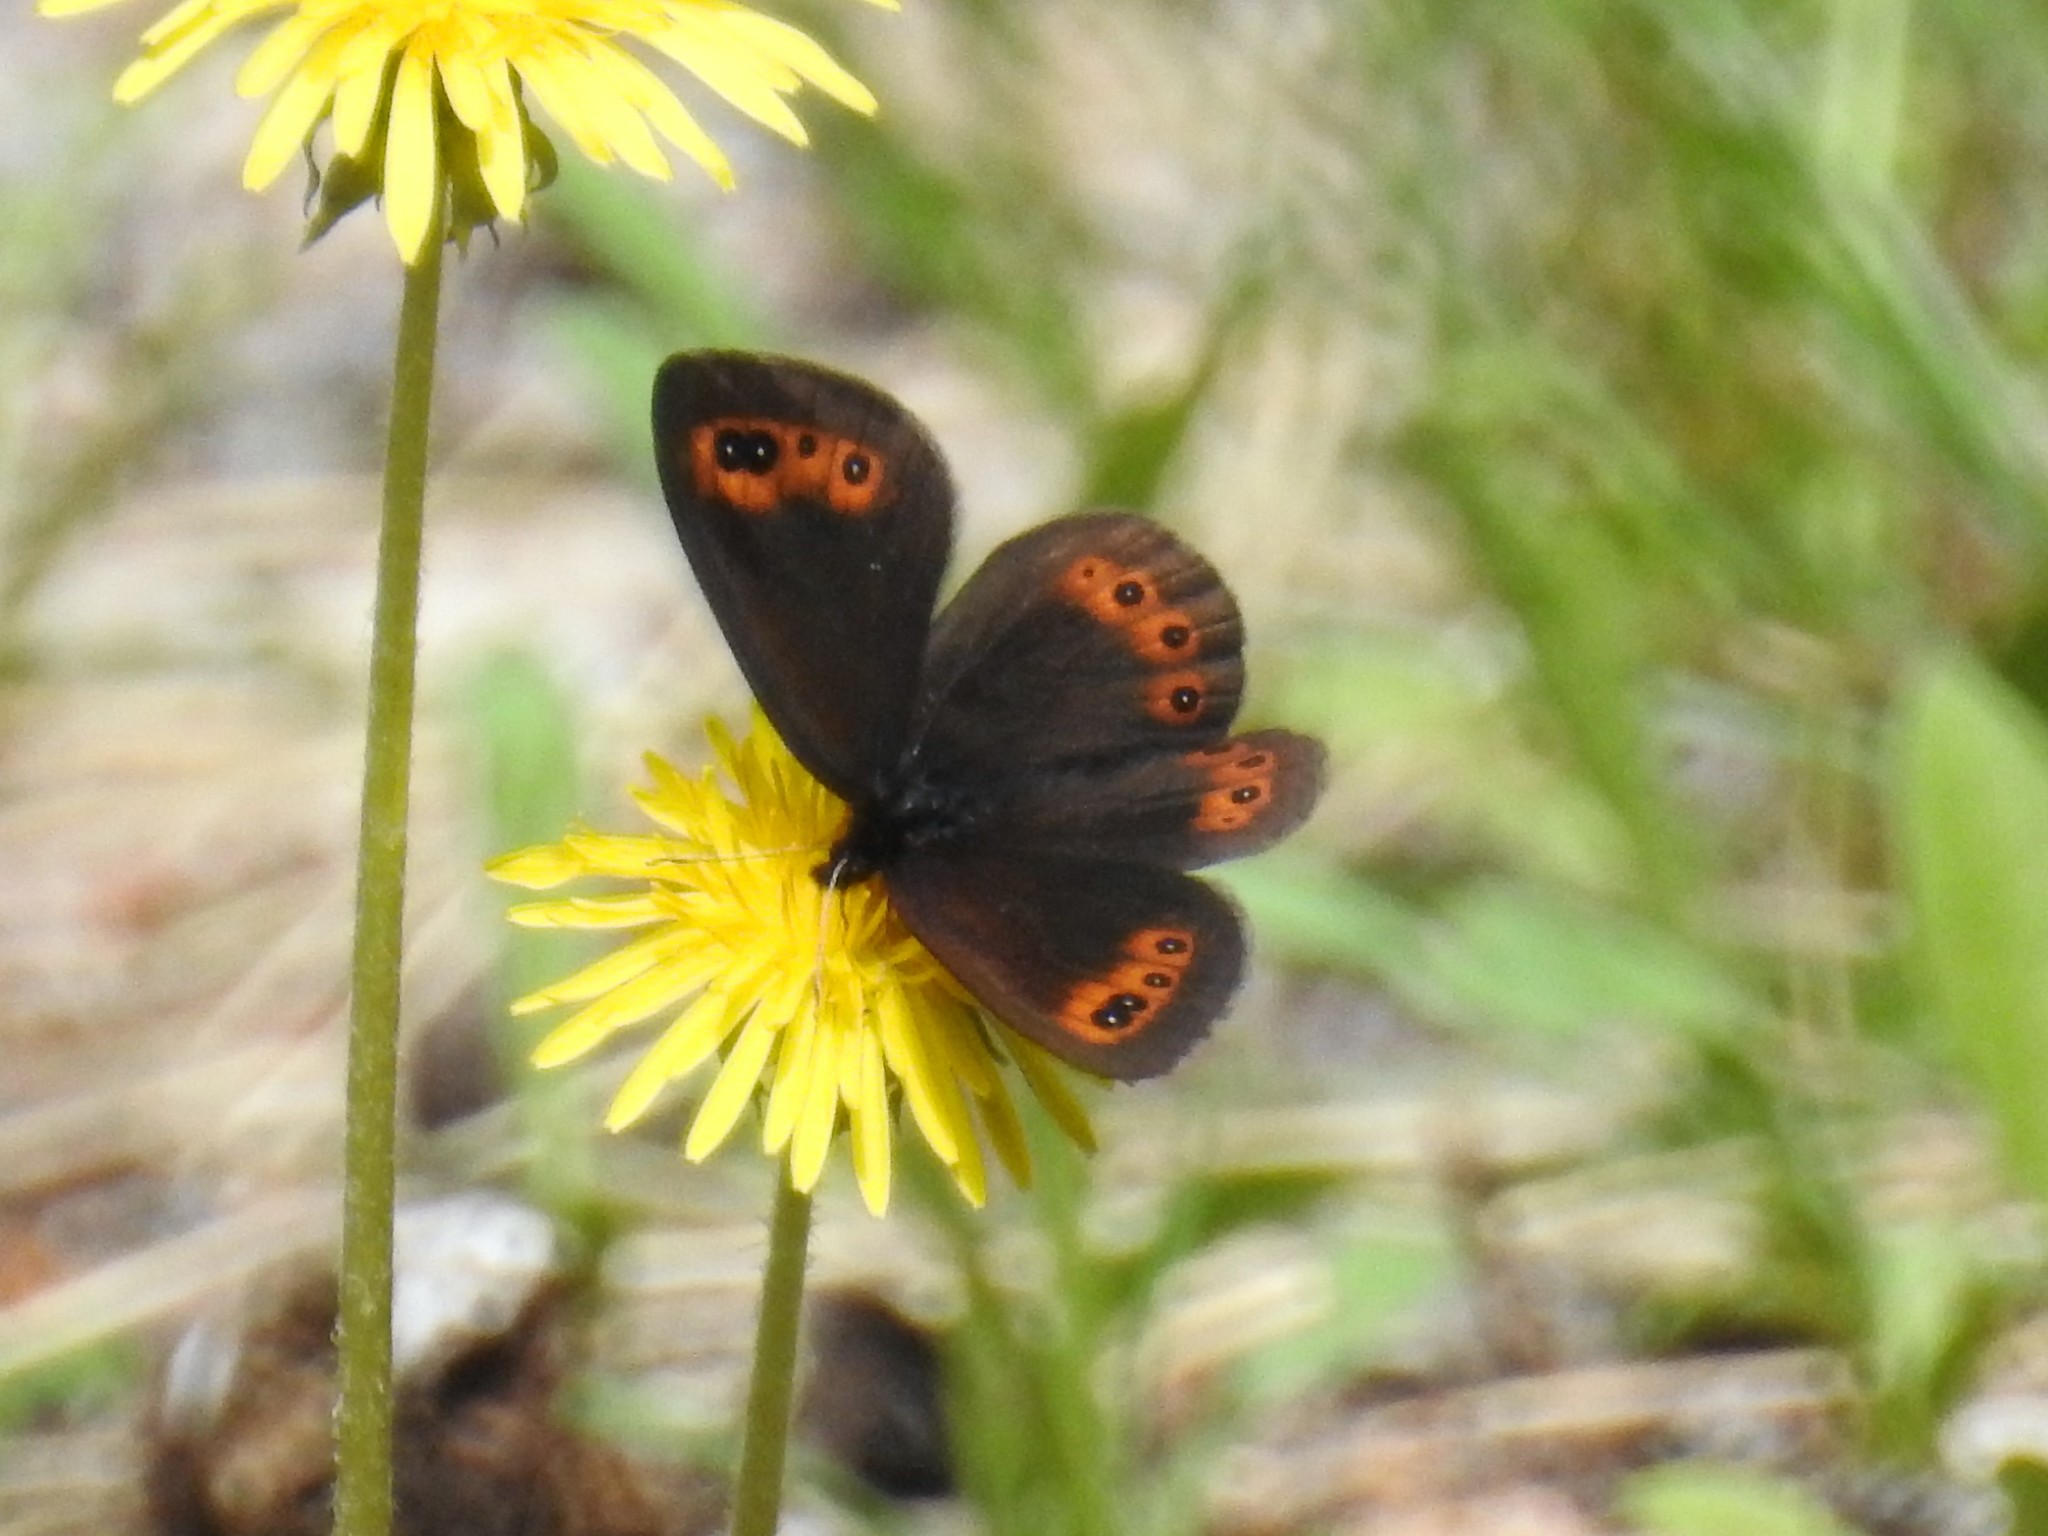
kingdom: Animalia
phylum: Arthropoda
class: Insecta
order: Lepidoptera
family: Nymphalidae
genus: Erebia
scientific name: Erebia epipsodea
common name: Common alpine
